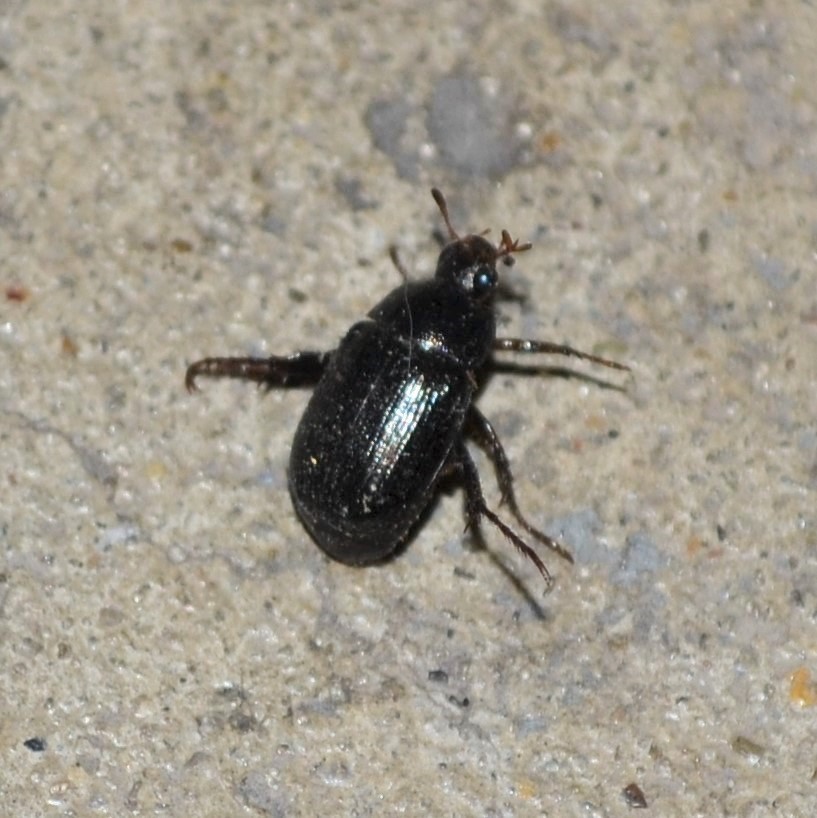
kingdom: Animalia
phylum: Arthropoda
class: Insecta
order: Coleoptera
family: Scarabaeidae
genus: Exomala
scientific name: Exomala orientalis
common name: Oriental beetle
